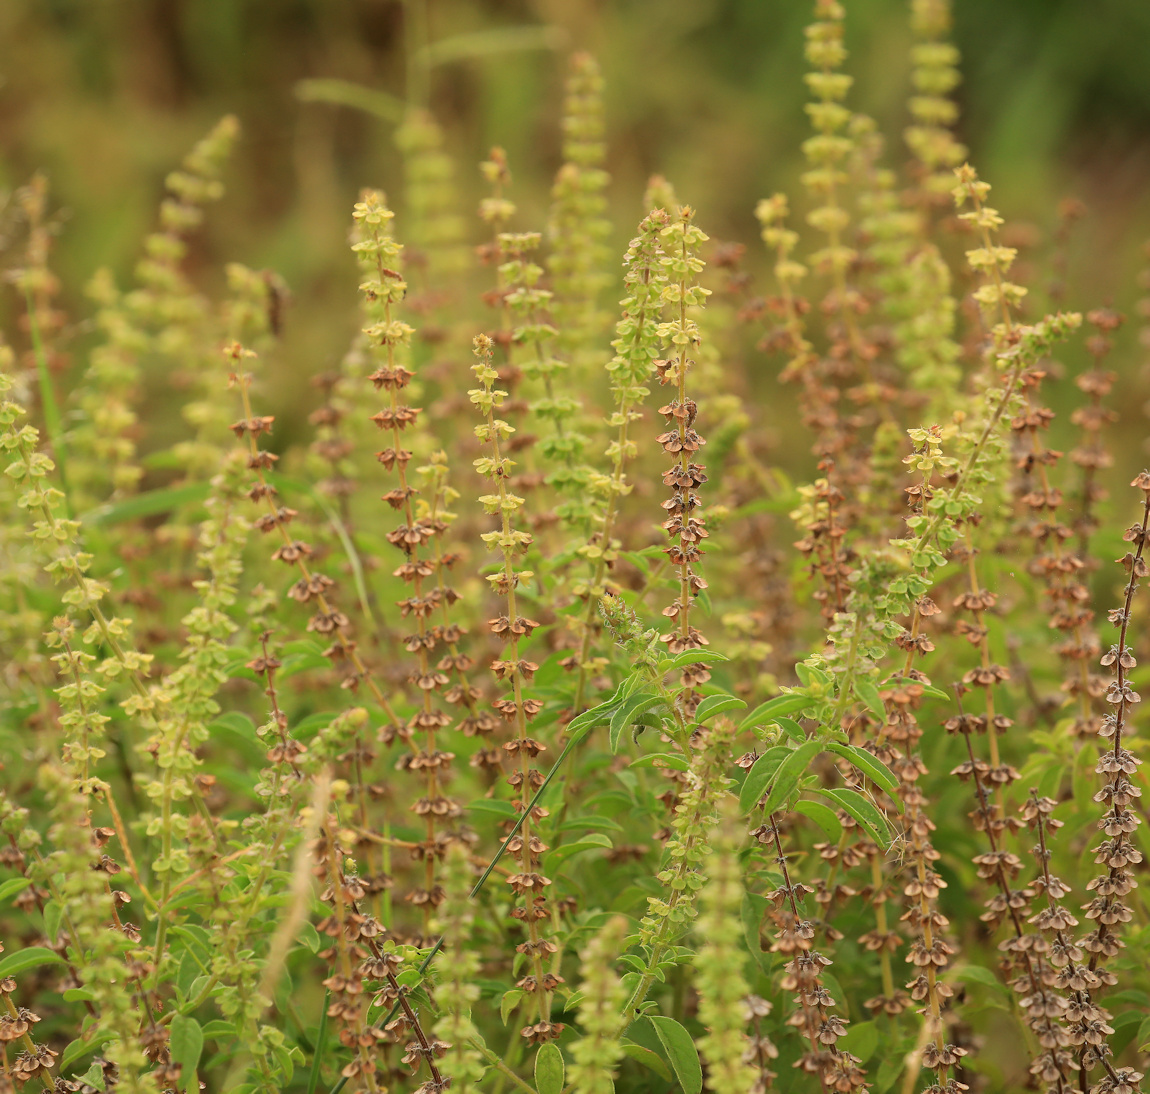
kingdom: Plantae
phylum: Tracheophyta
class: Magnoliopsida
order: Lamiales
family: Lamiaceae
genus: Ocimum
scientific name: Ocimum americanum
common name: American basil
